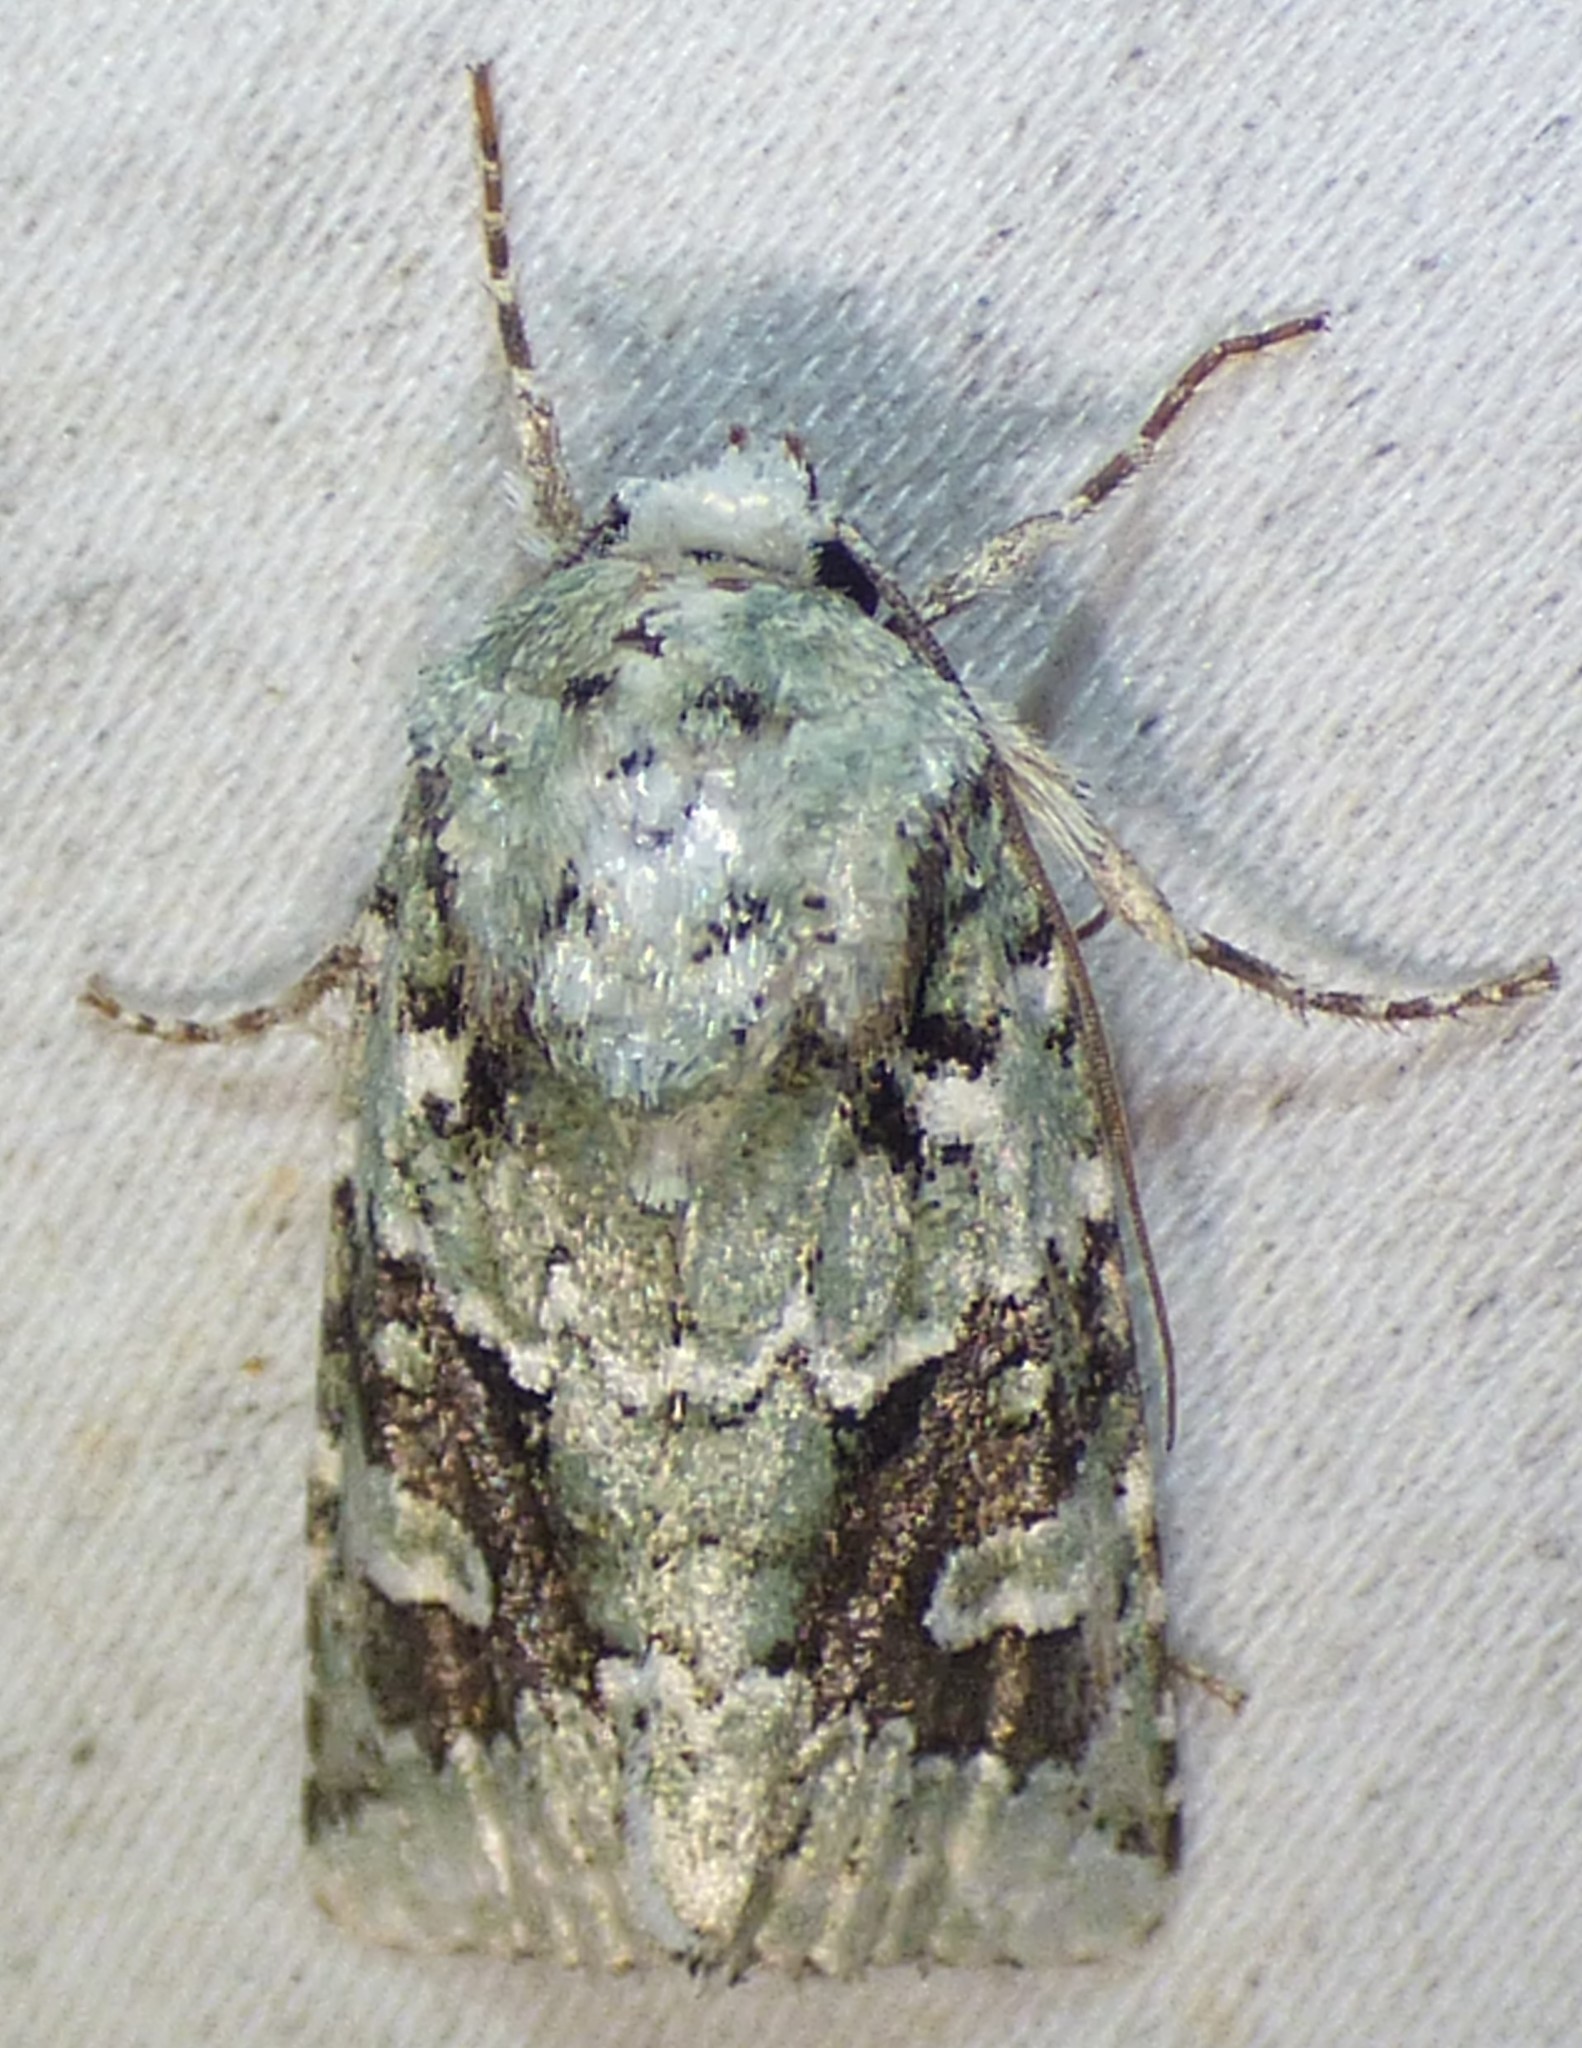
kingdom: Animalia
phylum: Arthropoda
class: Insecta
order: Lepidoptera
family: Noctuidae
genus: Lacinipolia
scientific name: Lacinipolia laudabilis
